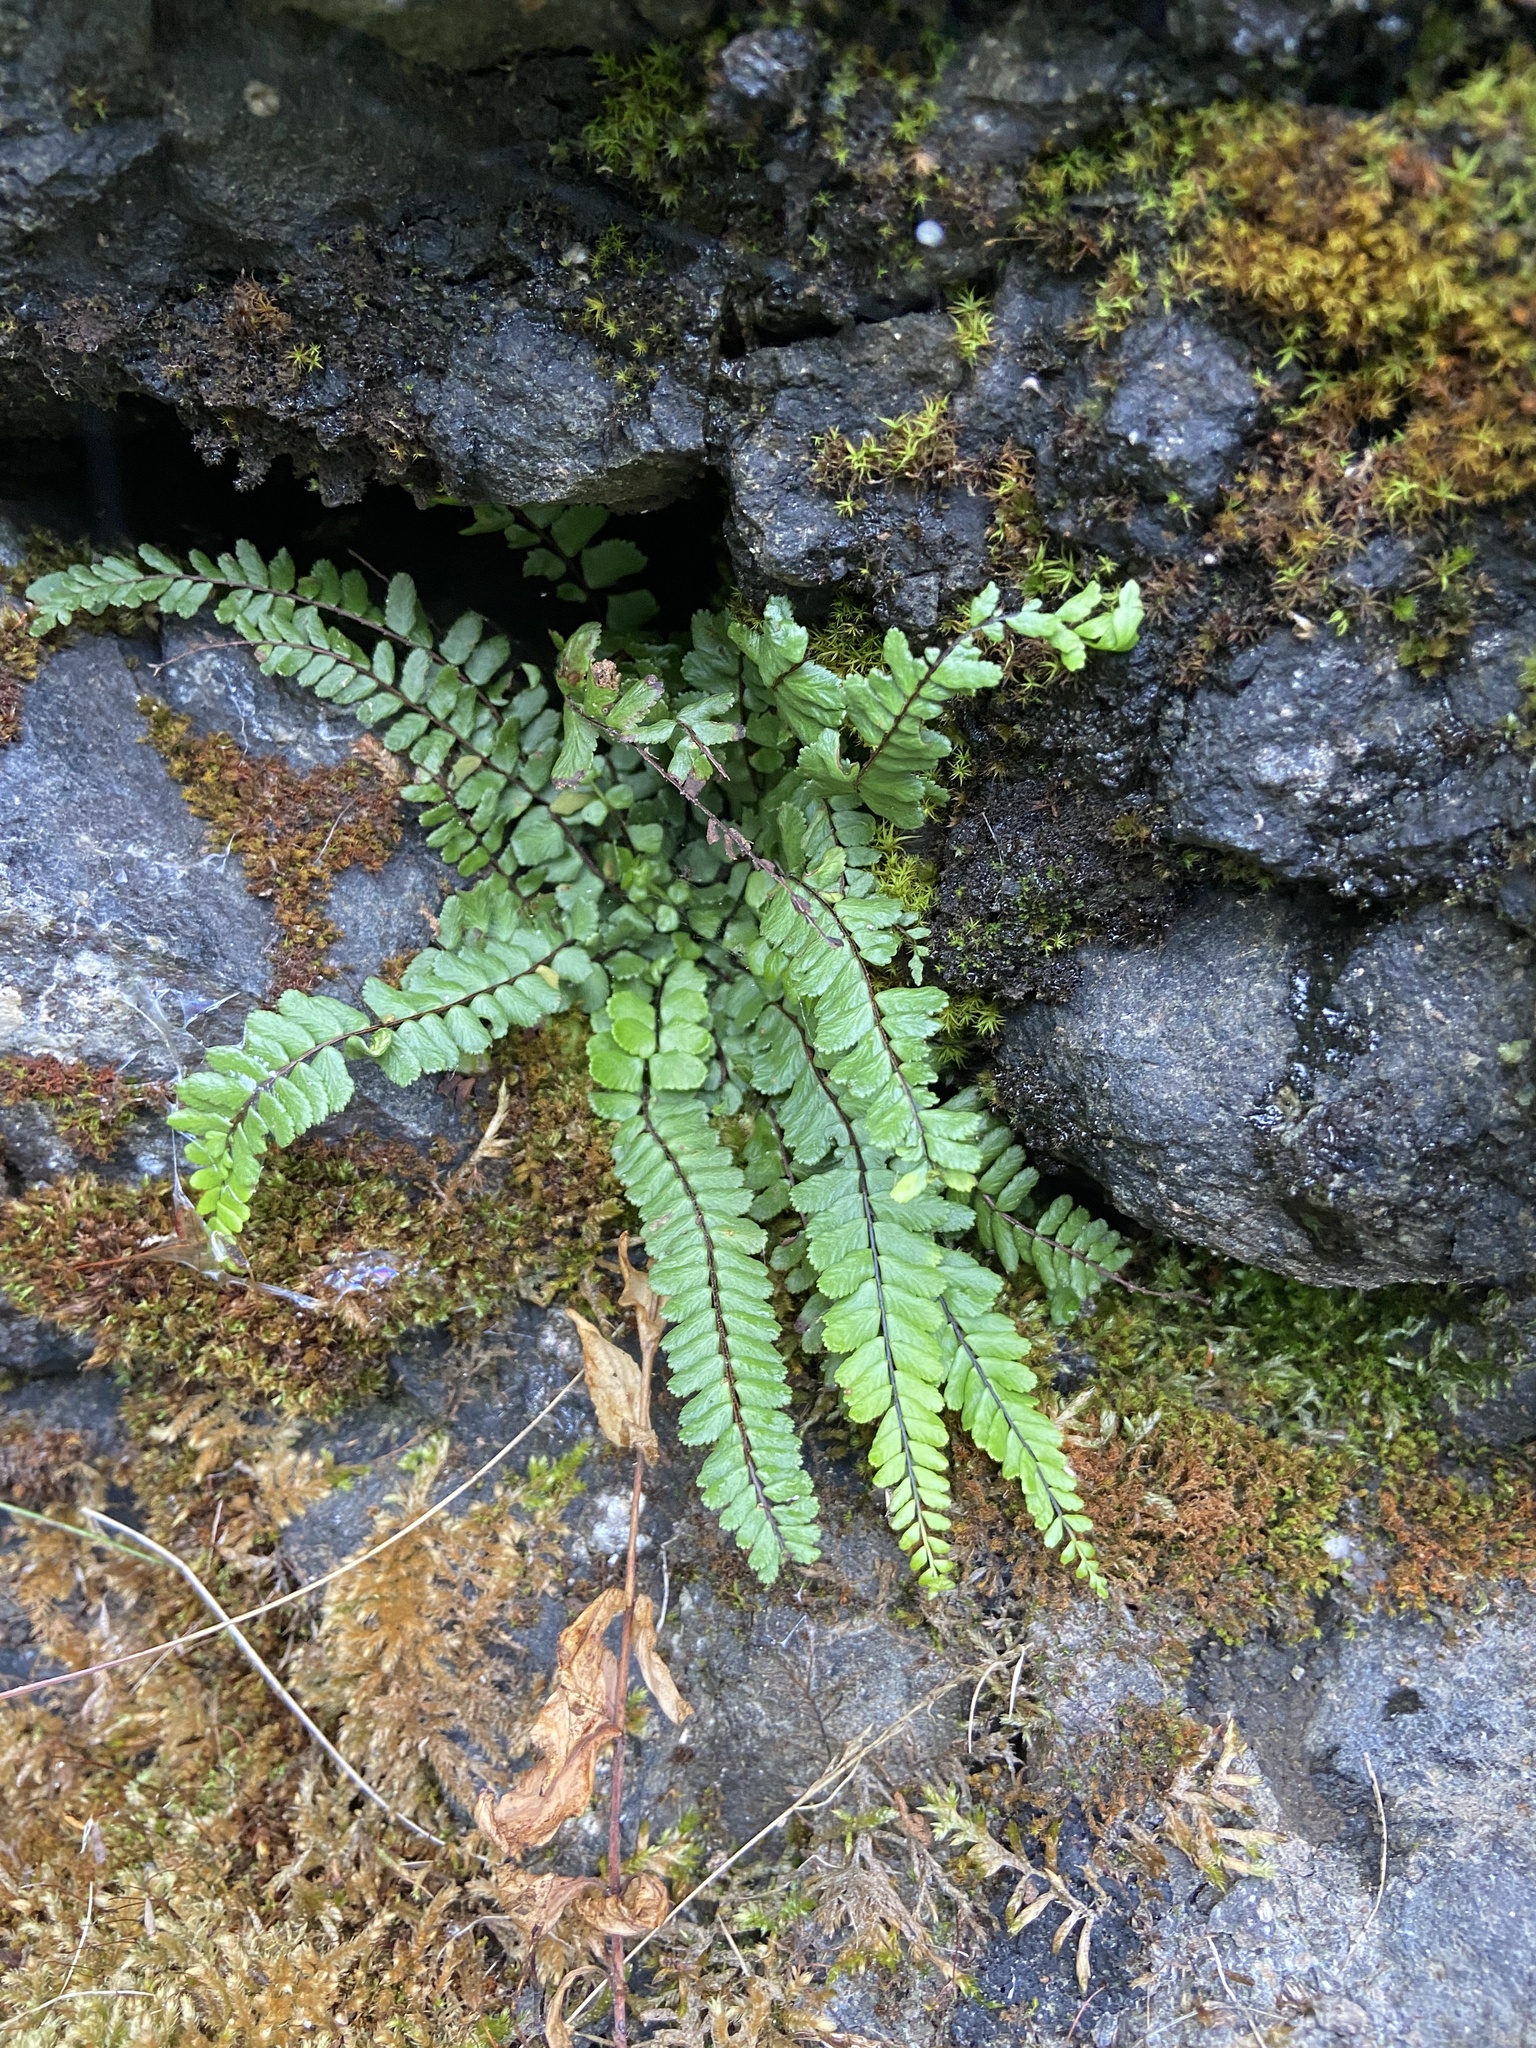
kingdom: Plantae
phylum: Tracheophyta
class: Polypodiopsida
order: Polypodiales
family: Aspleniaceae
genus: Asplenium
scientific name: Asplenium trichomanes
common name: Maidenhair spleenwort
